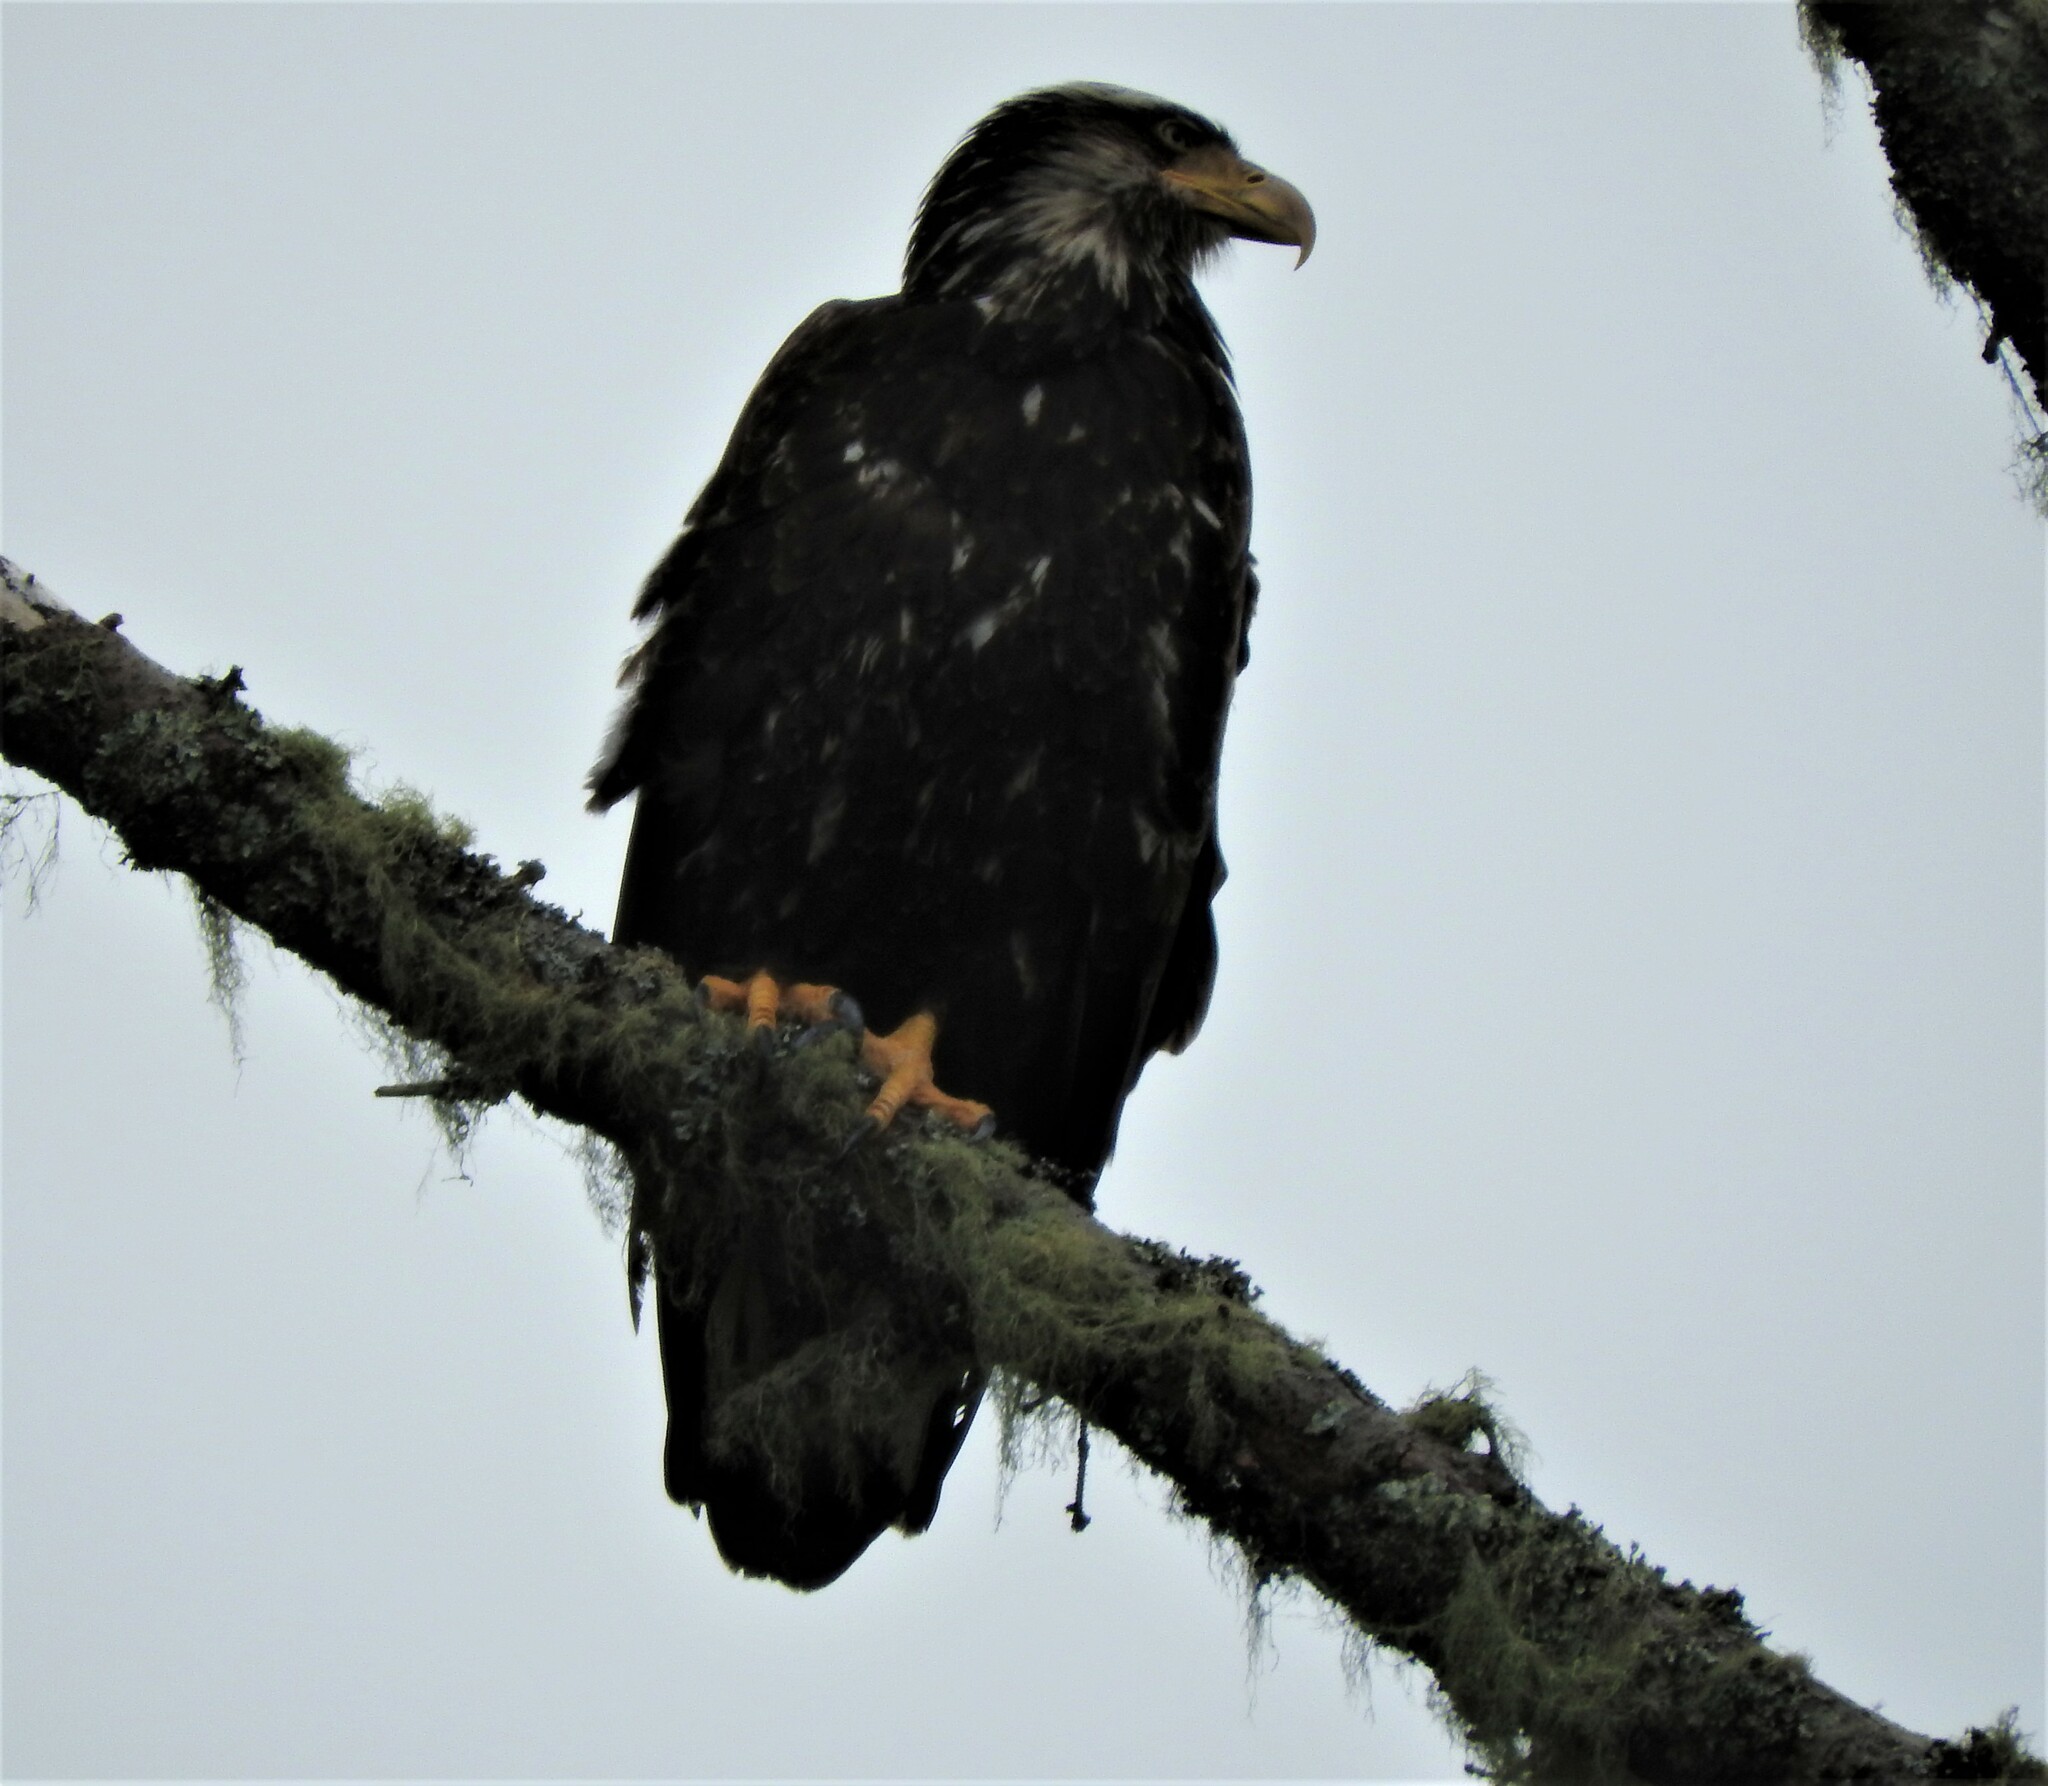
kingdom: Animalia
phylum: Chordata
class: Aves
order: Accipitriformes
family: Accipitridae
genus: Haliaeetus
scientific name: Haliaeetus leucocephalus
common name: Bald eagle
